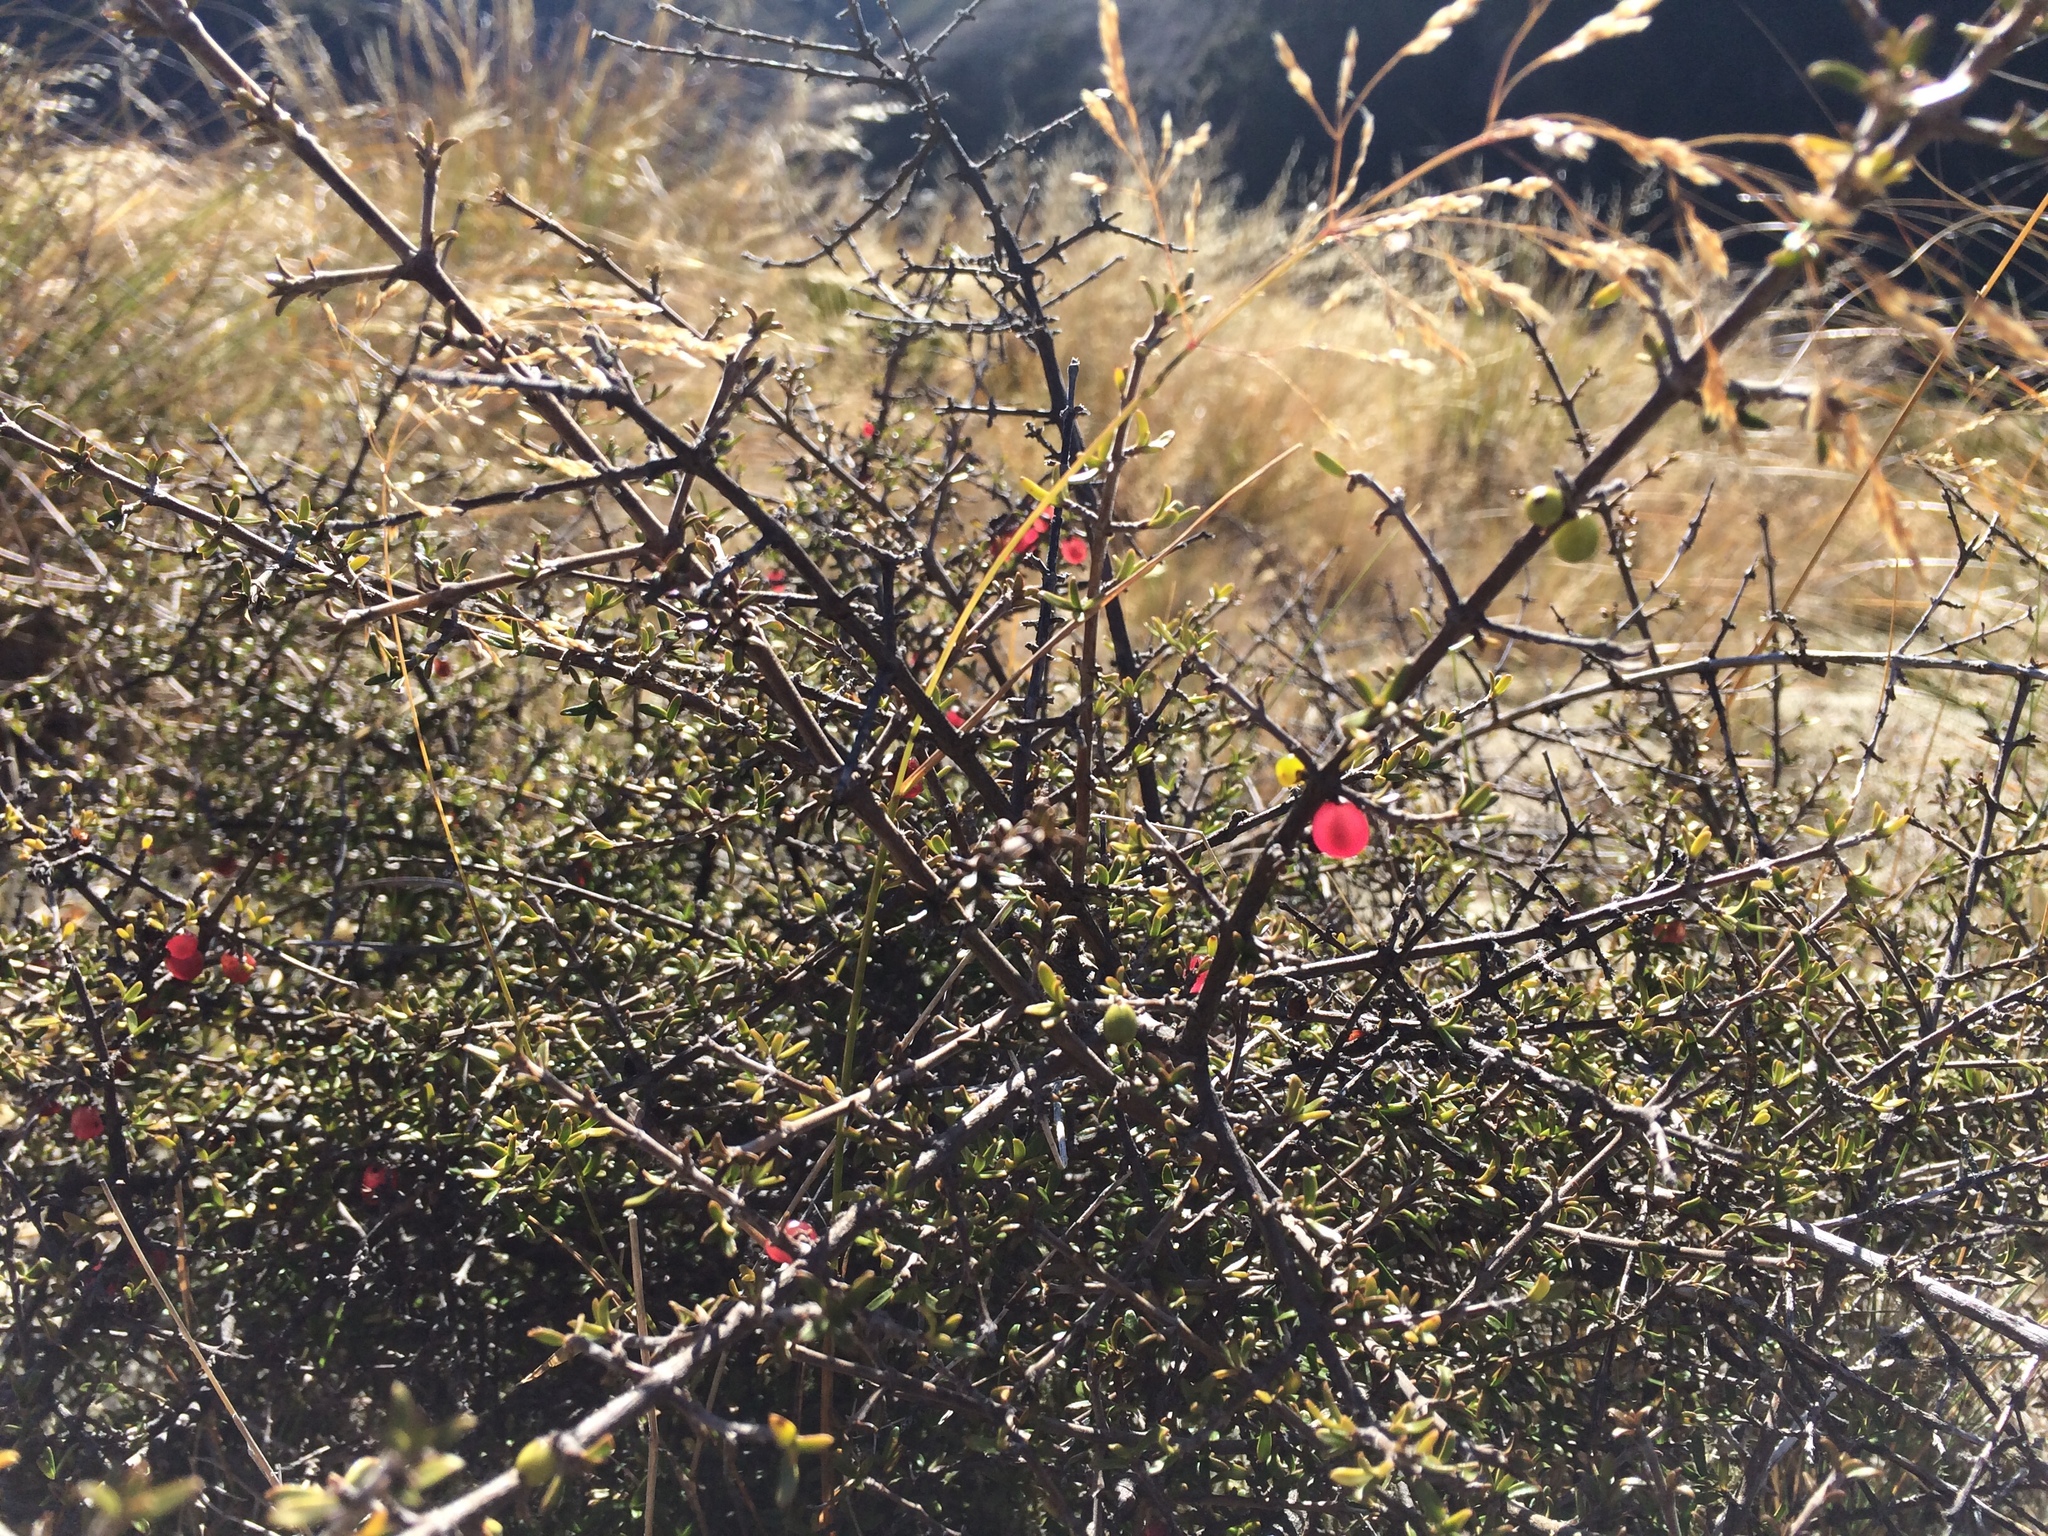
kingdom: Plantae
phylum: Tracheophyta
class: Magnoliopsida
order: Gentianales
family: Rubiaceae
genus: Coprosma
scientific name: Coprosma cheesemanii
